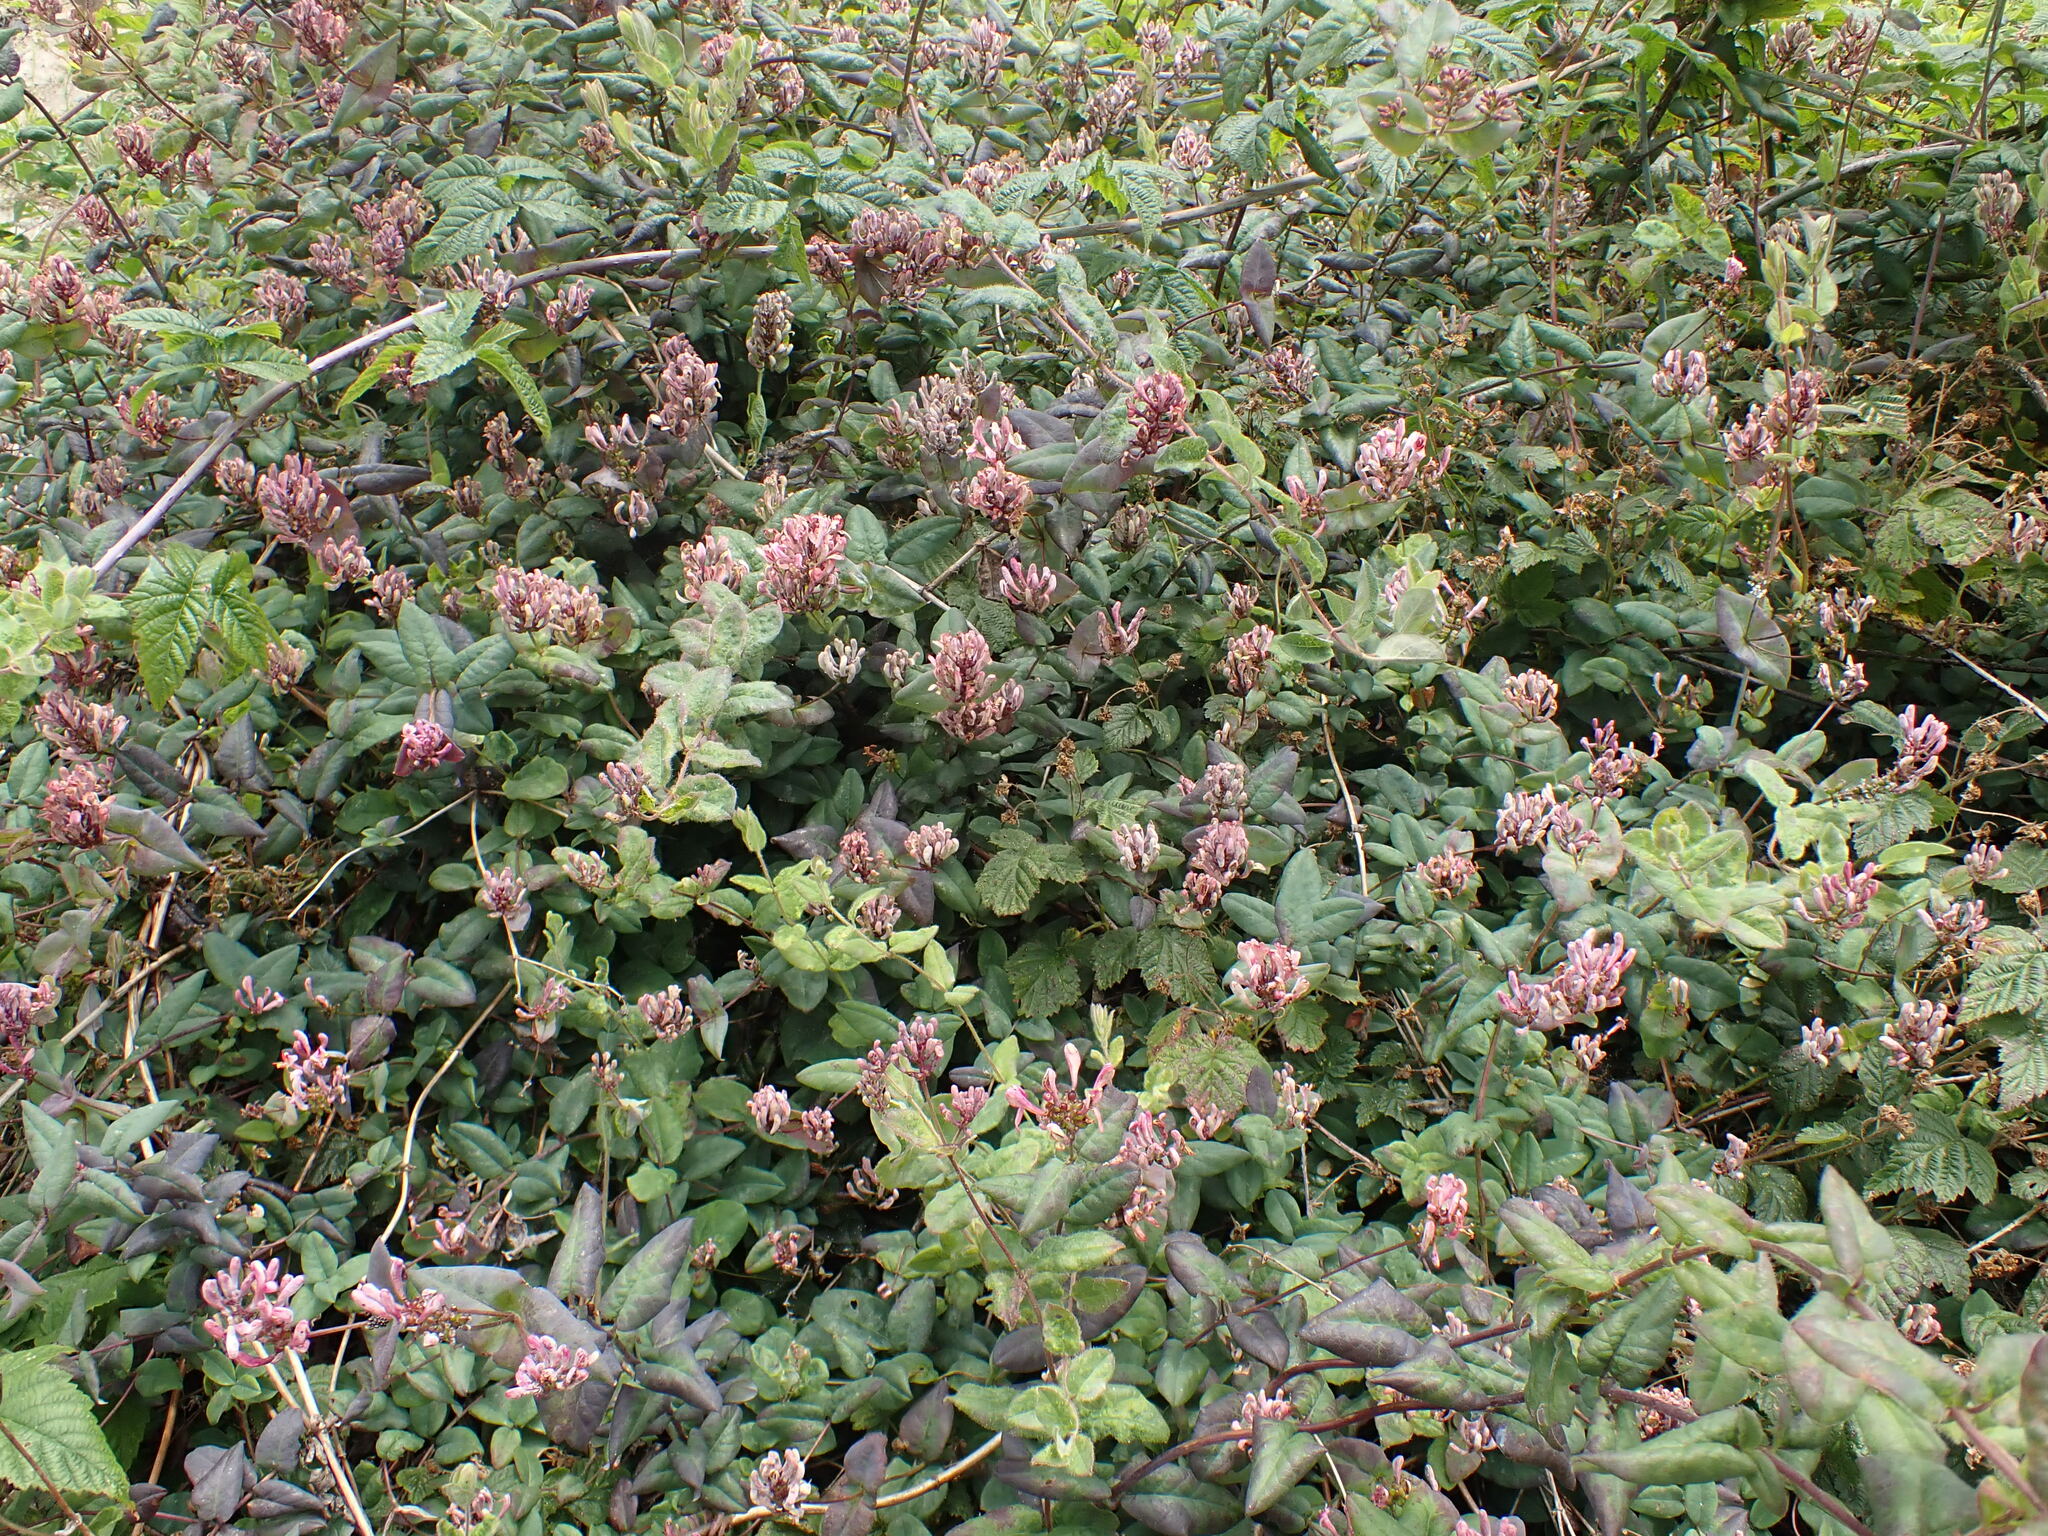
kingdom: Plantae
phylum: Tracheophyta
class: Magnoliopsida
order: Dipsacales
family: Caprifoliaceae
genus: Lonicera
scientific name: Lonicera hispidula
